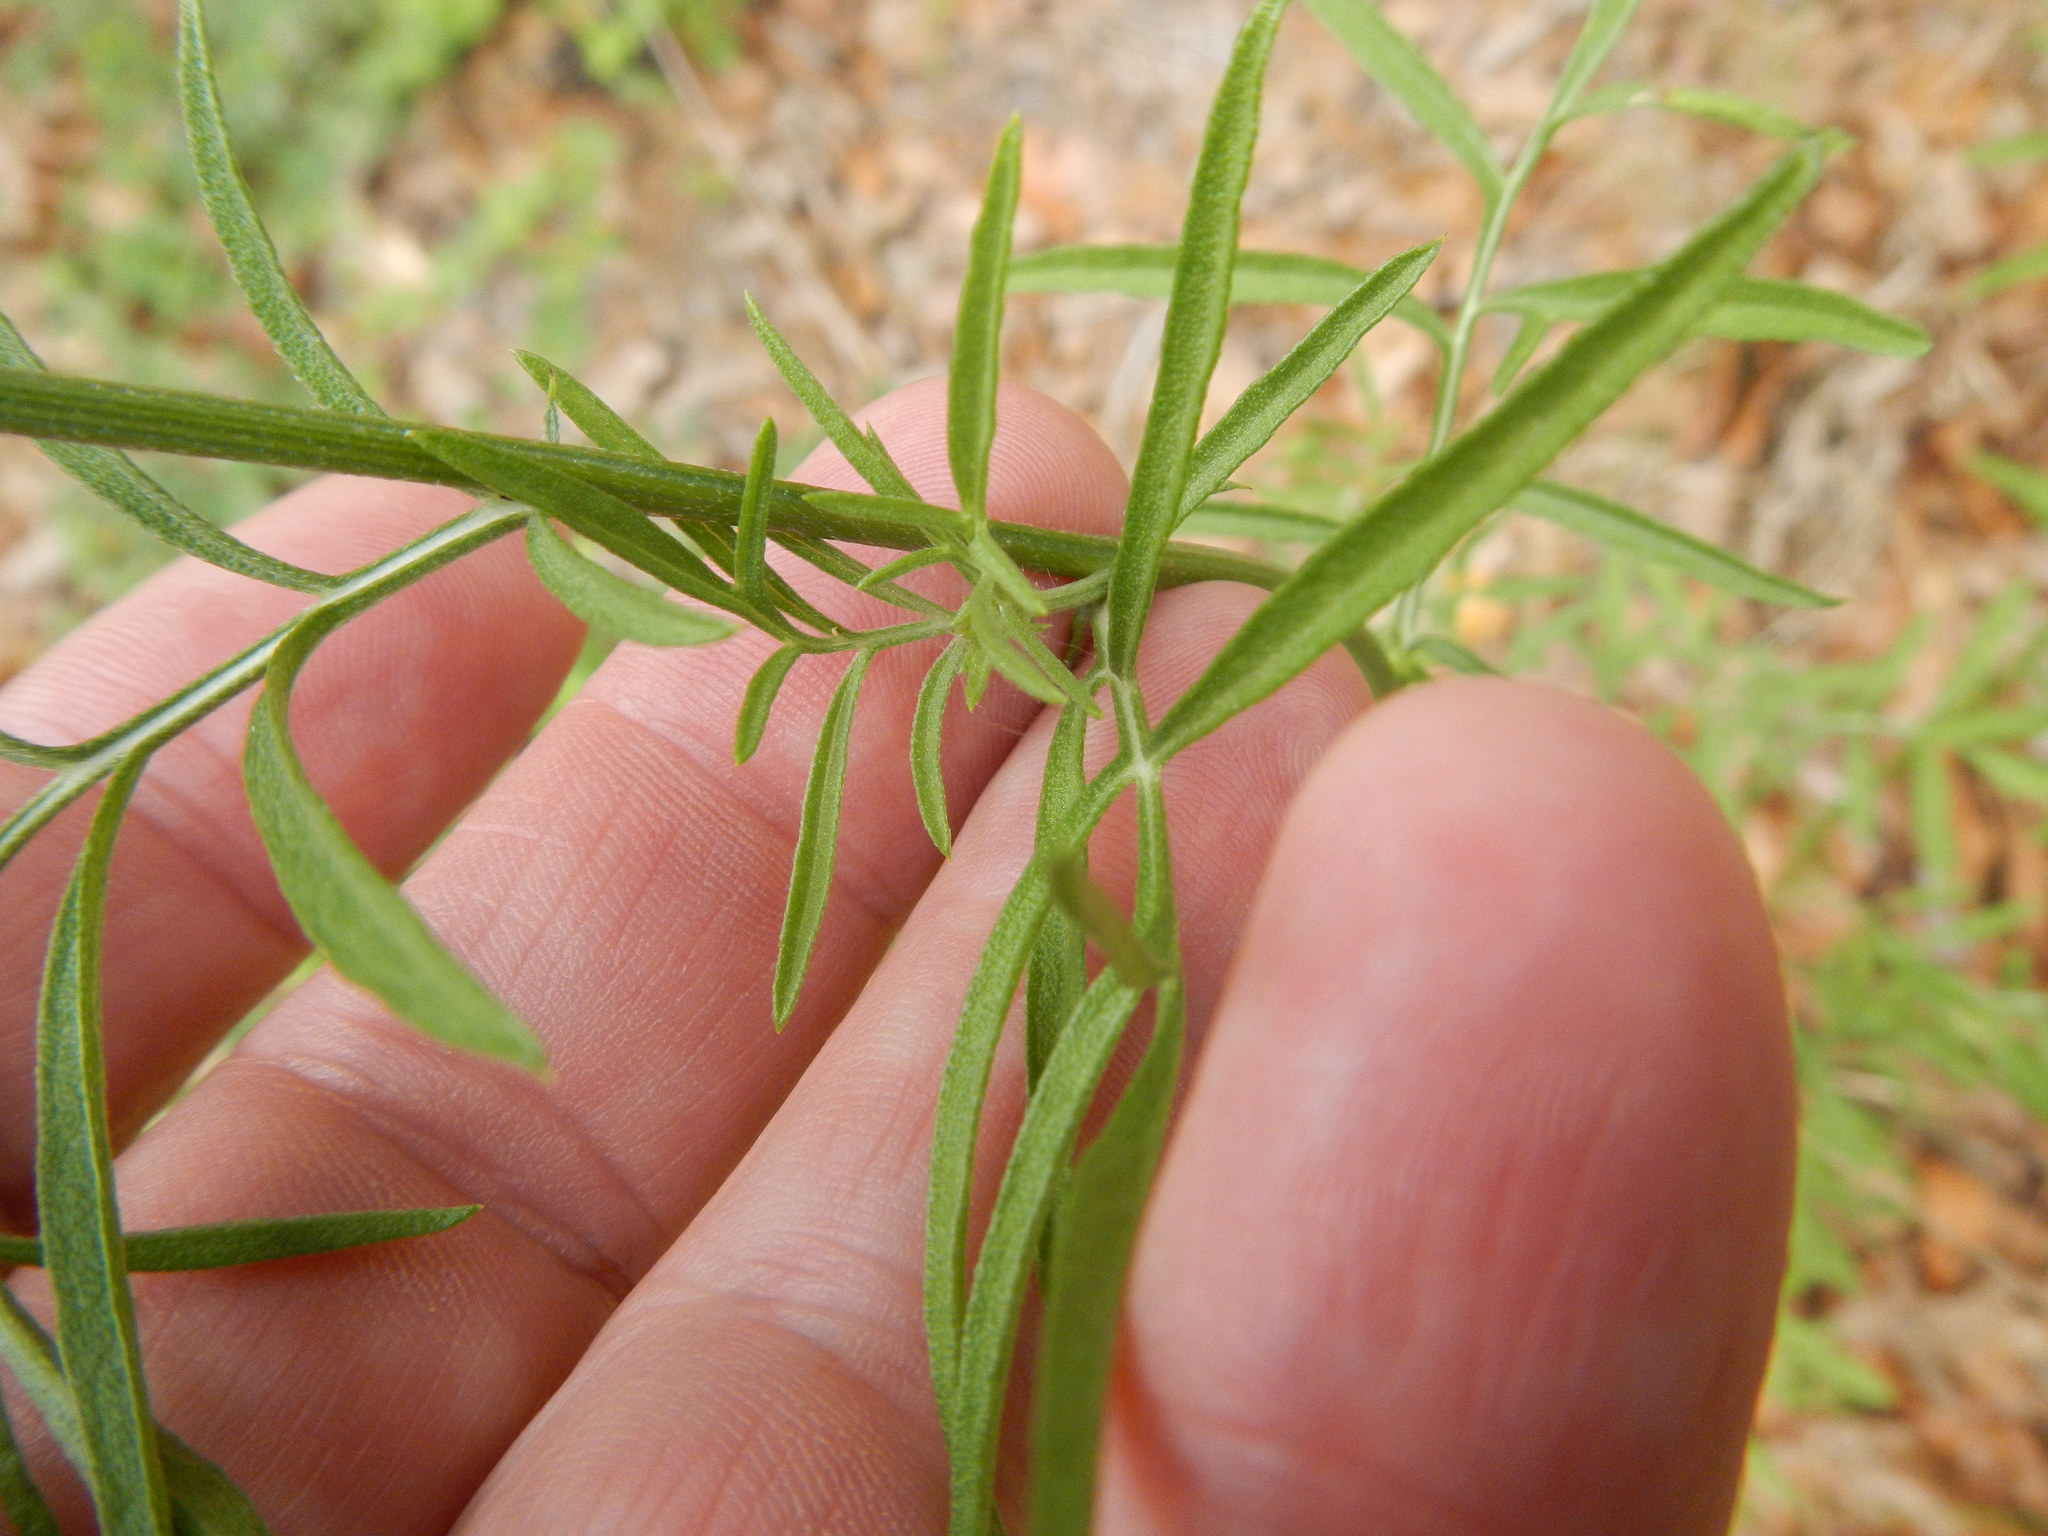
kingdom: Plantae
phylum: Tracheophyta
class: Magnoliopsida
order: Asterales
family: Asteraceae
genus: Ratibida
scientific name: Ratibida columnifera
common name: Prairie coneflower
